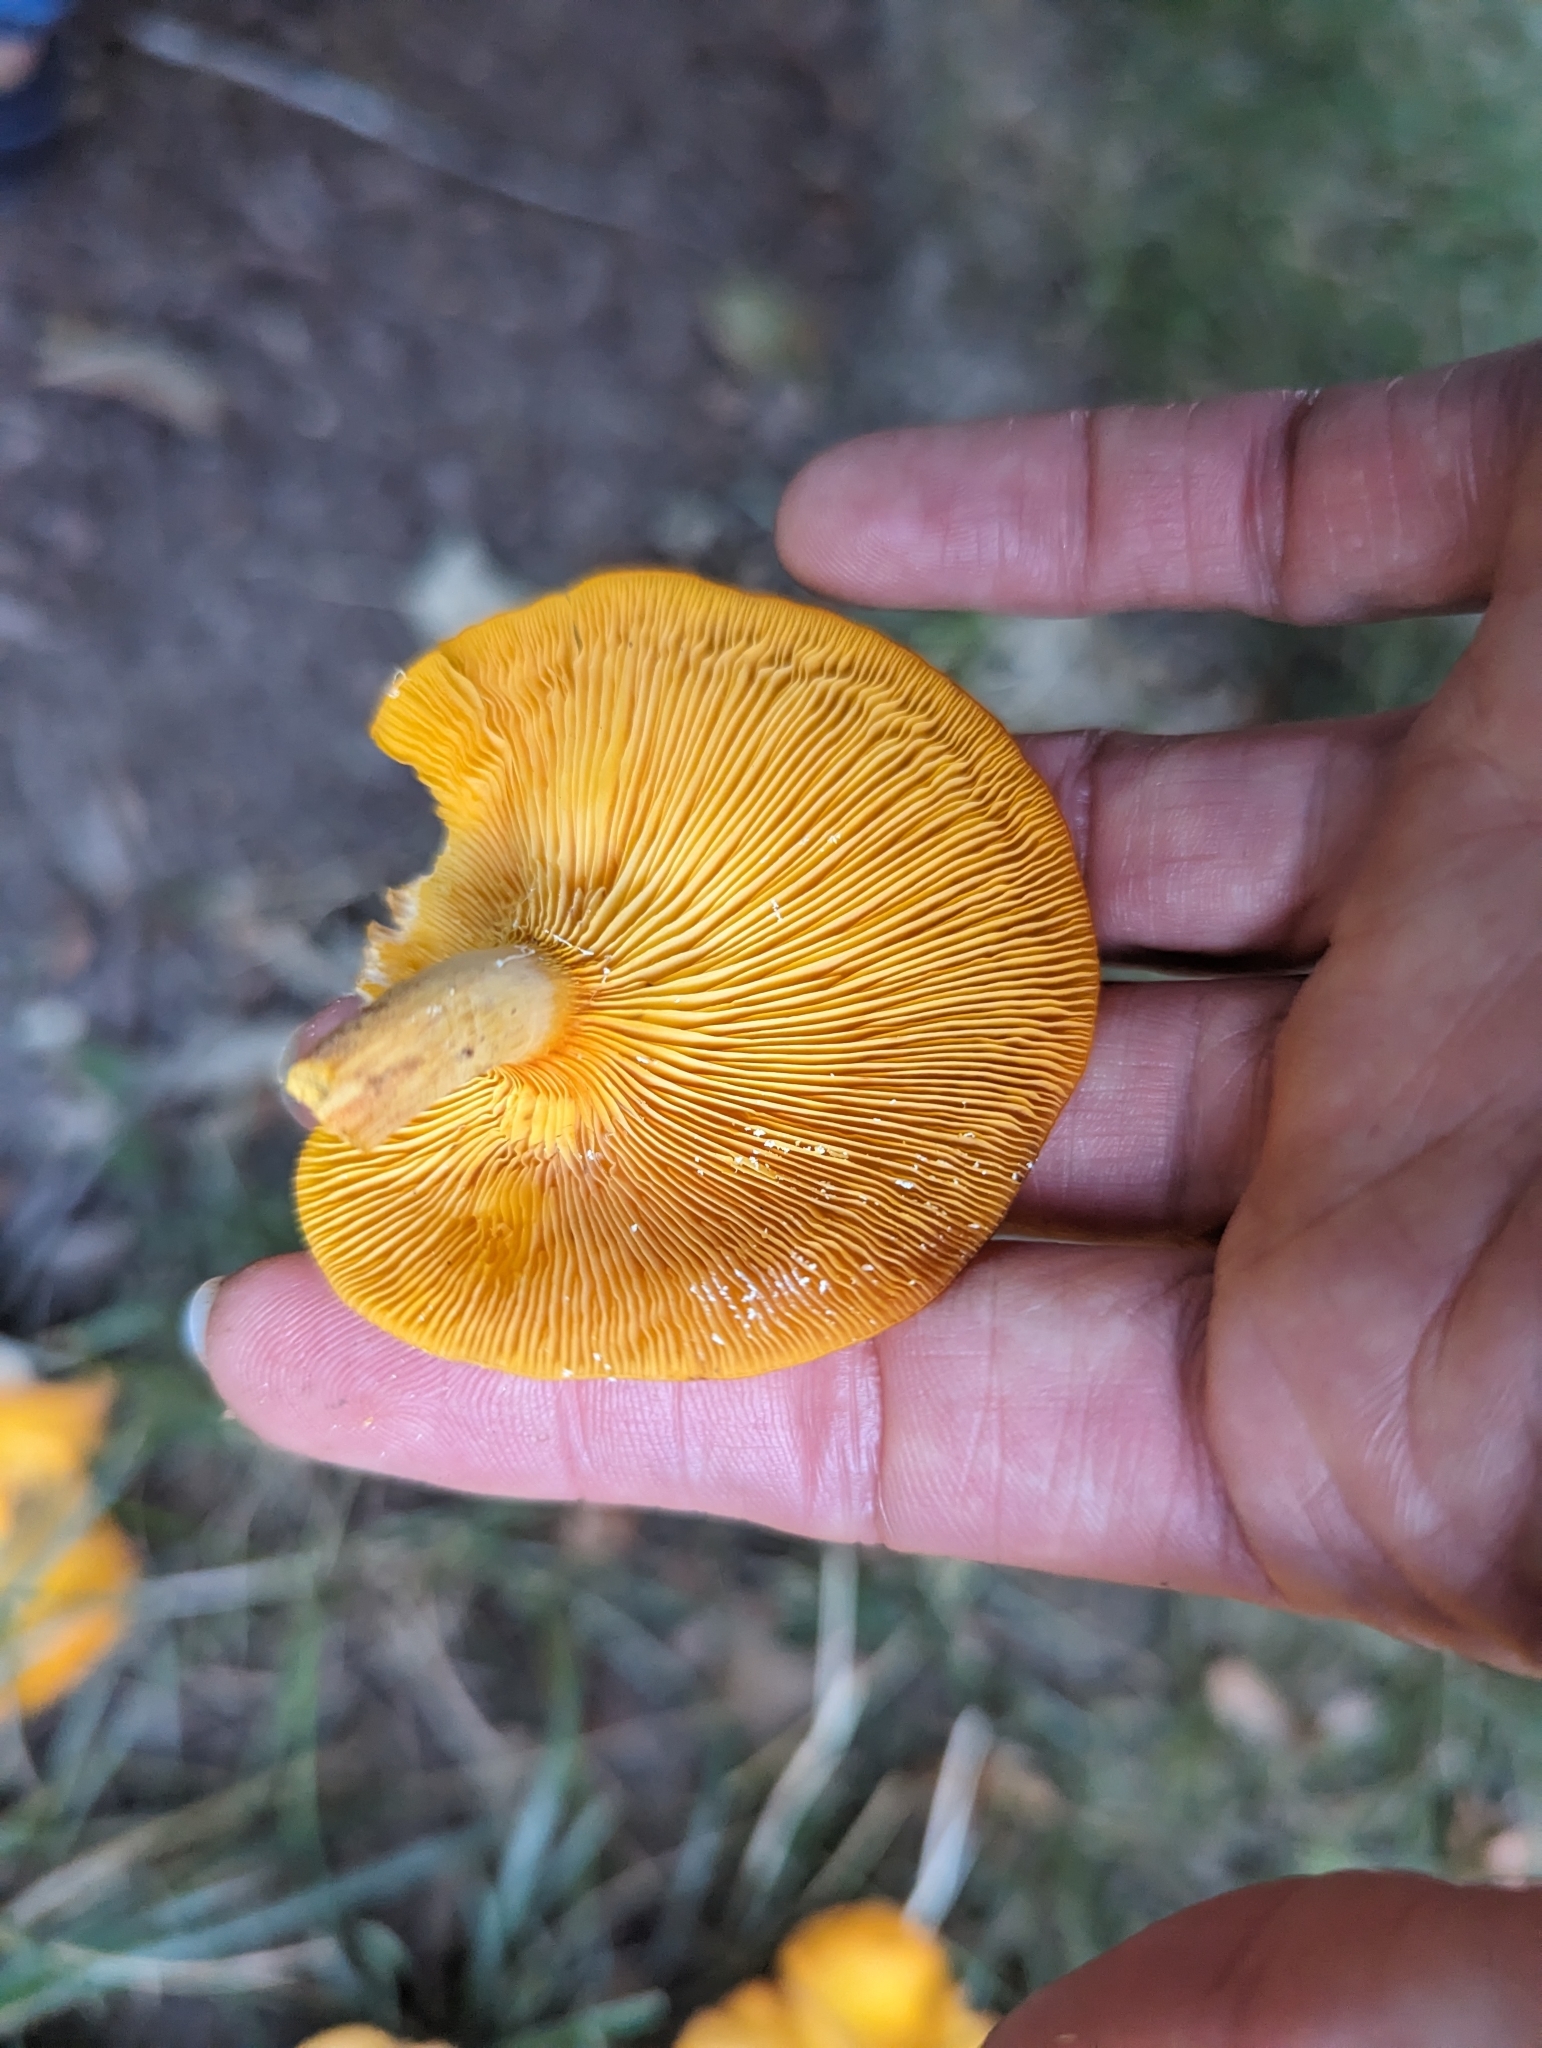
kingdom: Fungi
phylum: Basidiomycota
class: Agaricomycetes
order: Agaricales
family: Omphalotaceae
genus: Omphalotus
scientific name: Omphalotus illudens
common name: Jack o lantern
